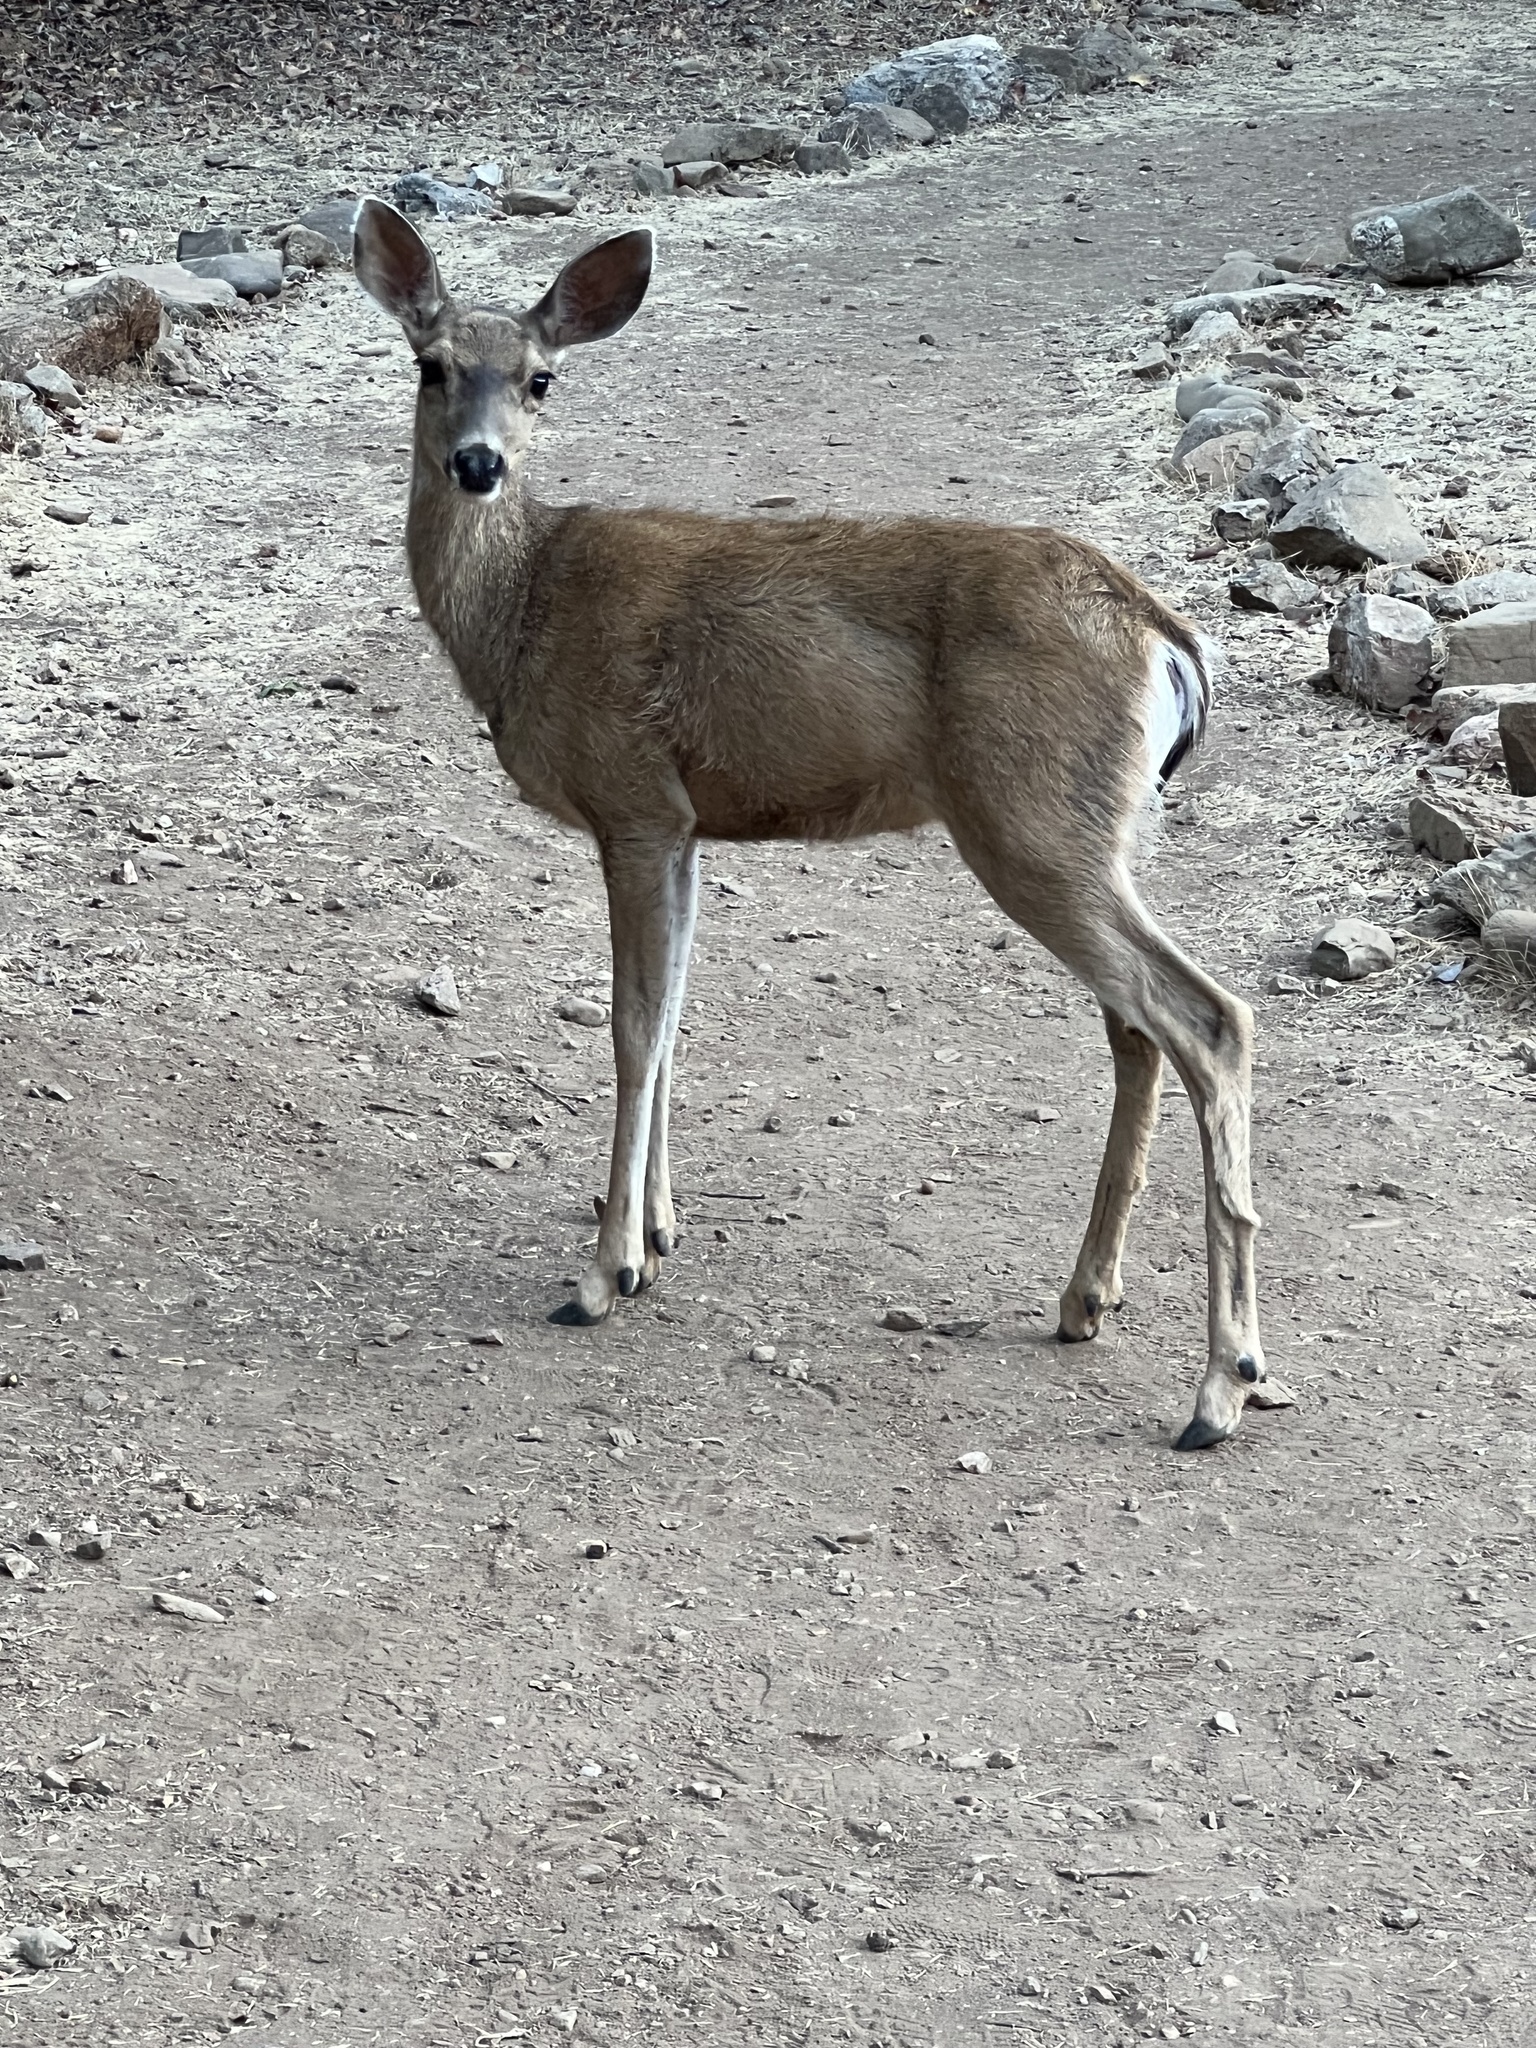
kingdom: Animalia
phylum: Chordata
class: Mammalia
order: Artiodactyla
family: Cervidae
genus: Odocoileus
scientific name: Odocoileus hemionus
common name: Mule deer
